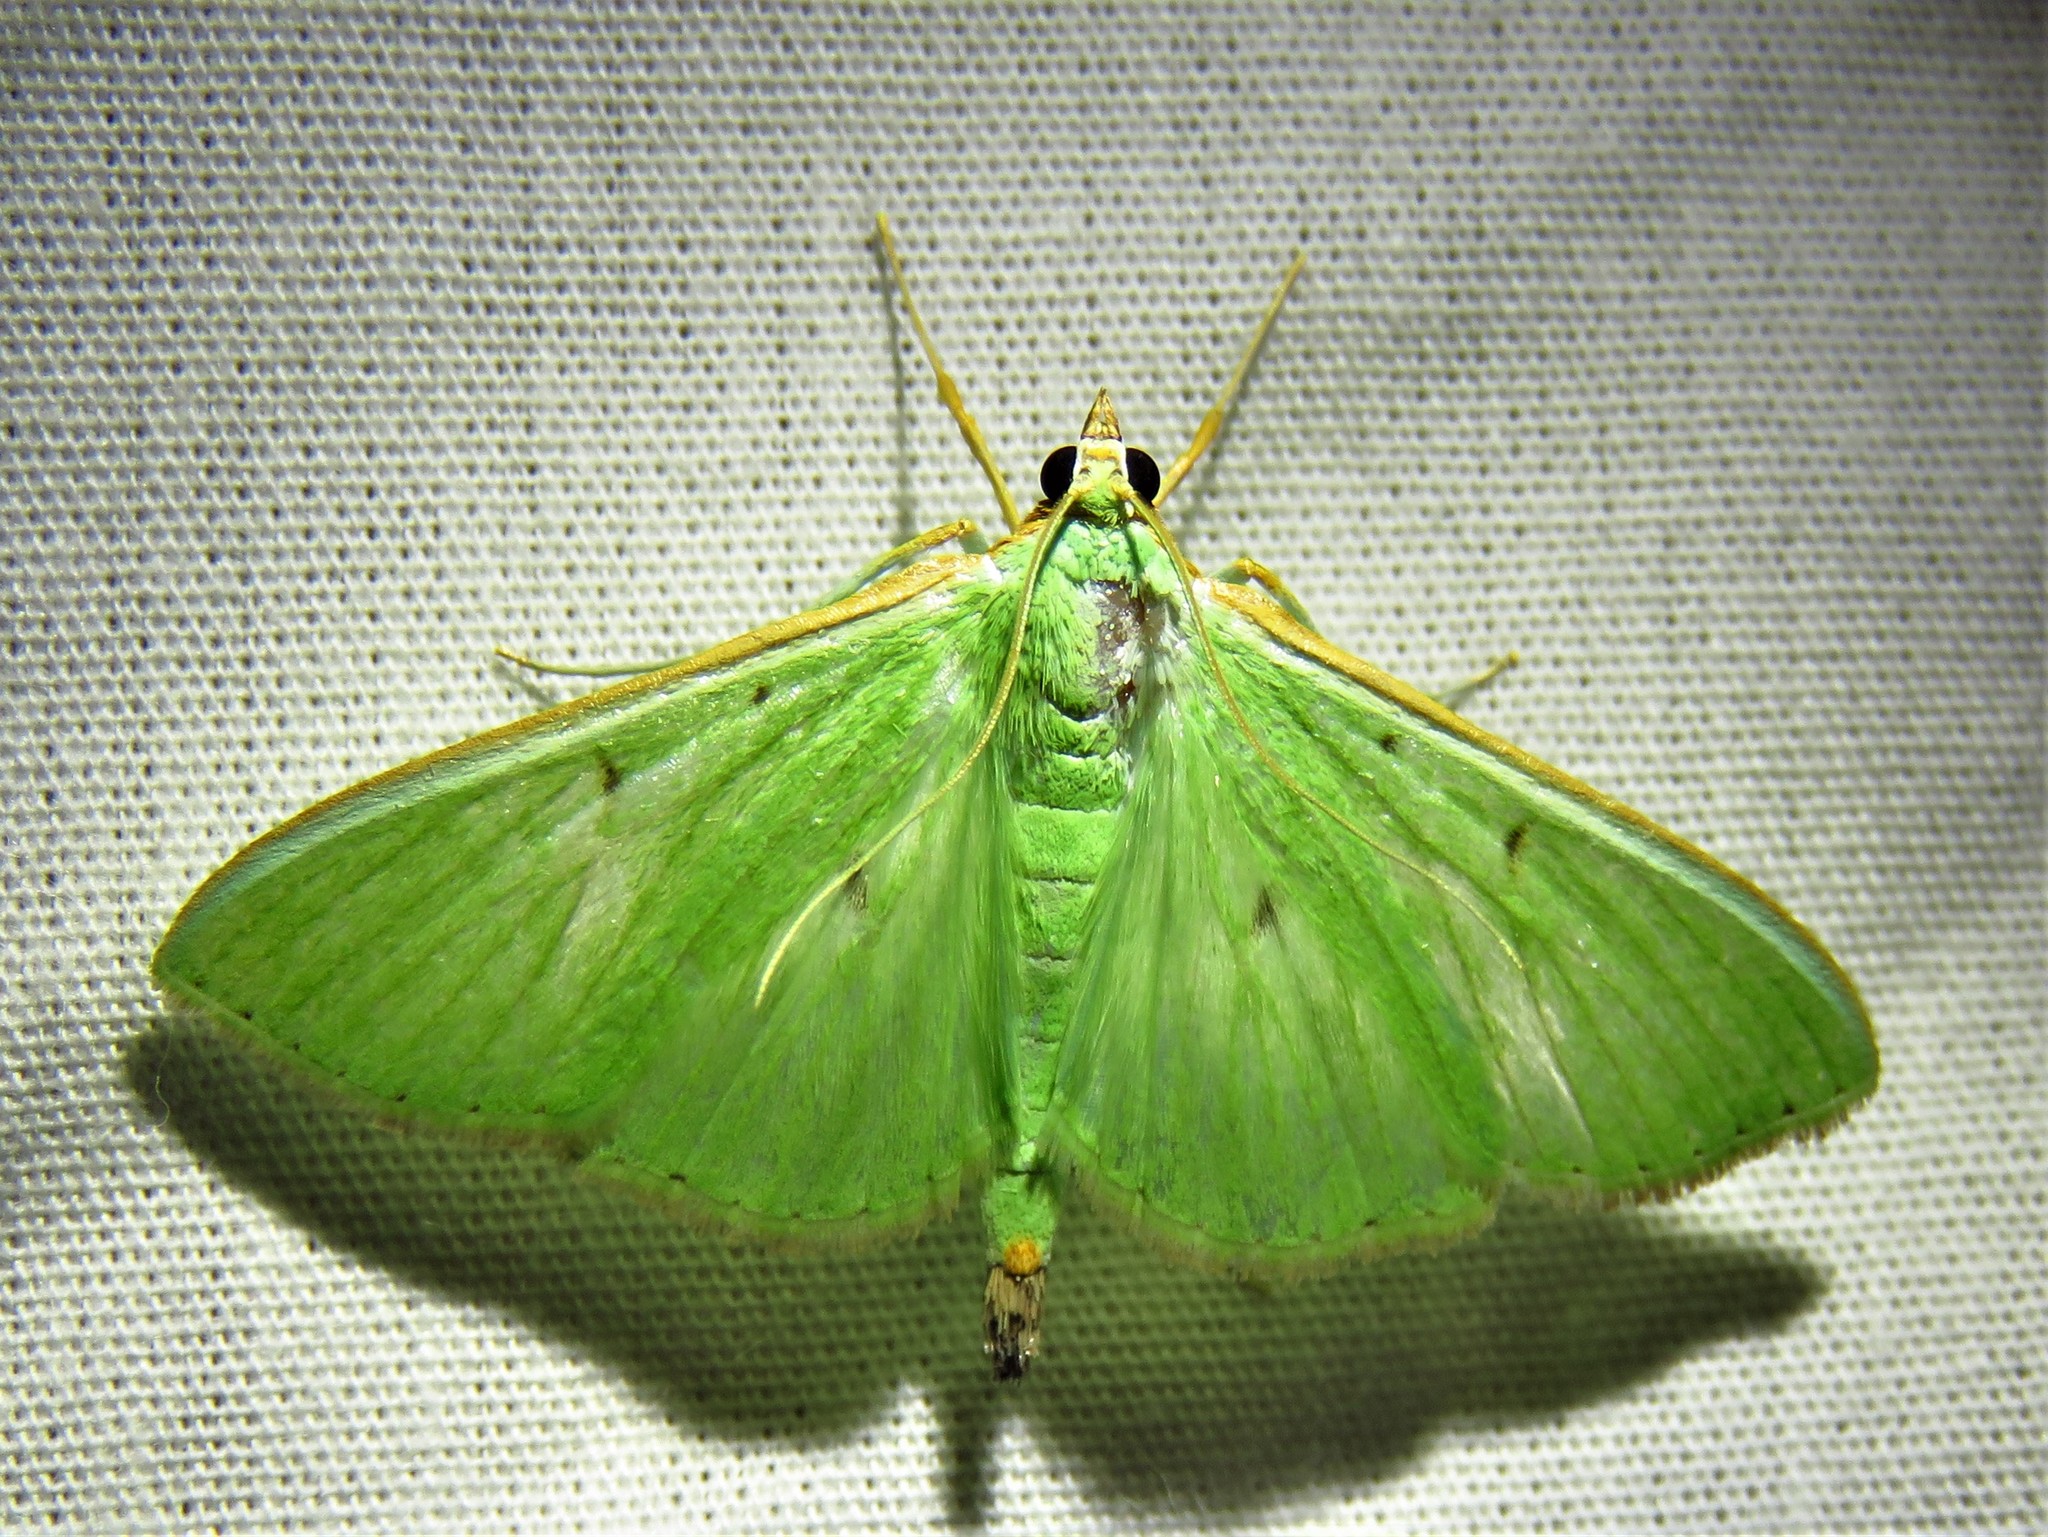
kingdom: Animalia
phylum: Arthropoda
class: Insecta
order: Lepidoptera
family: Crambidae
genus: Parotis
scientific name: Parotis baldersalis
